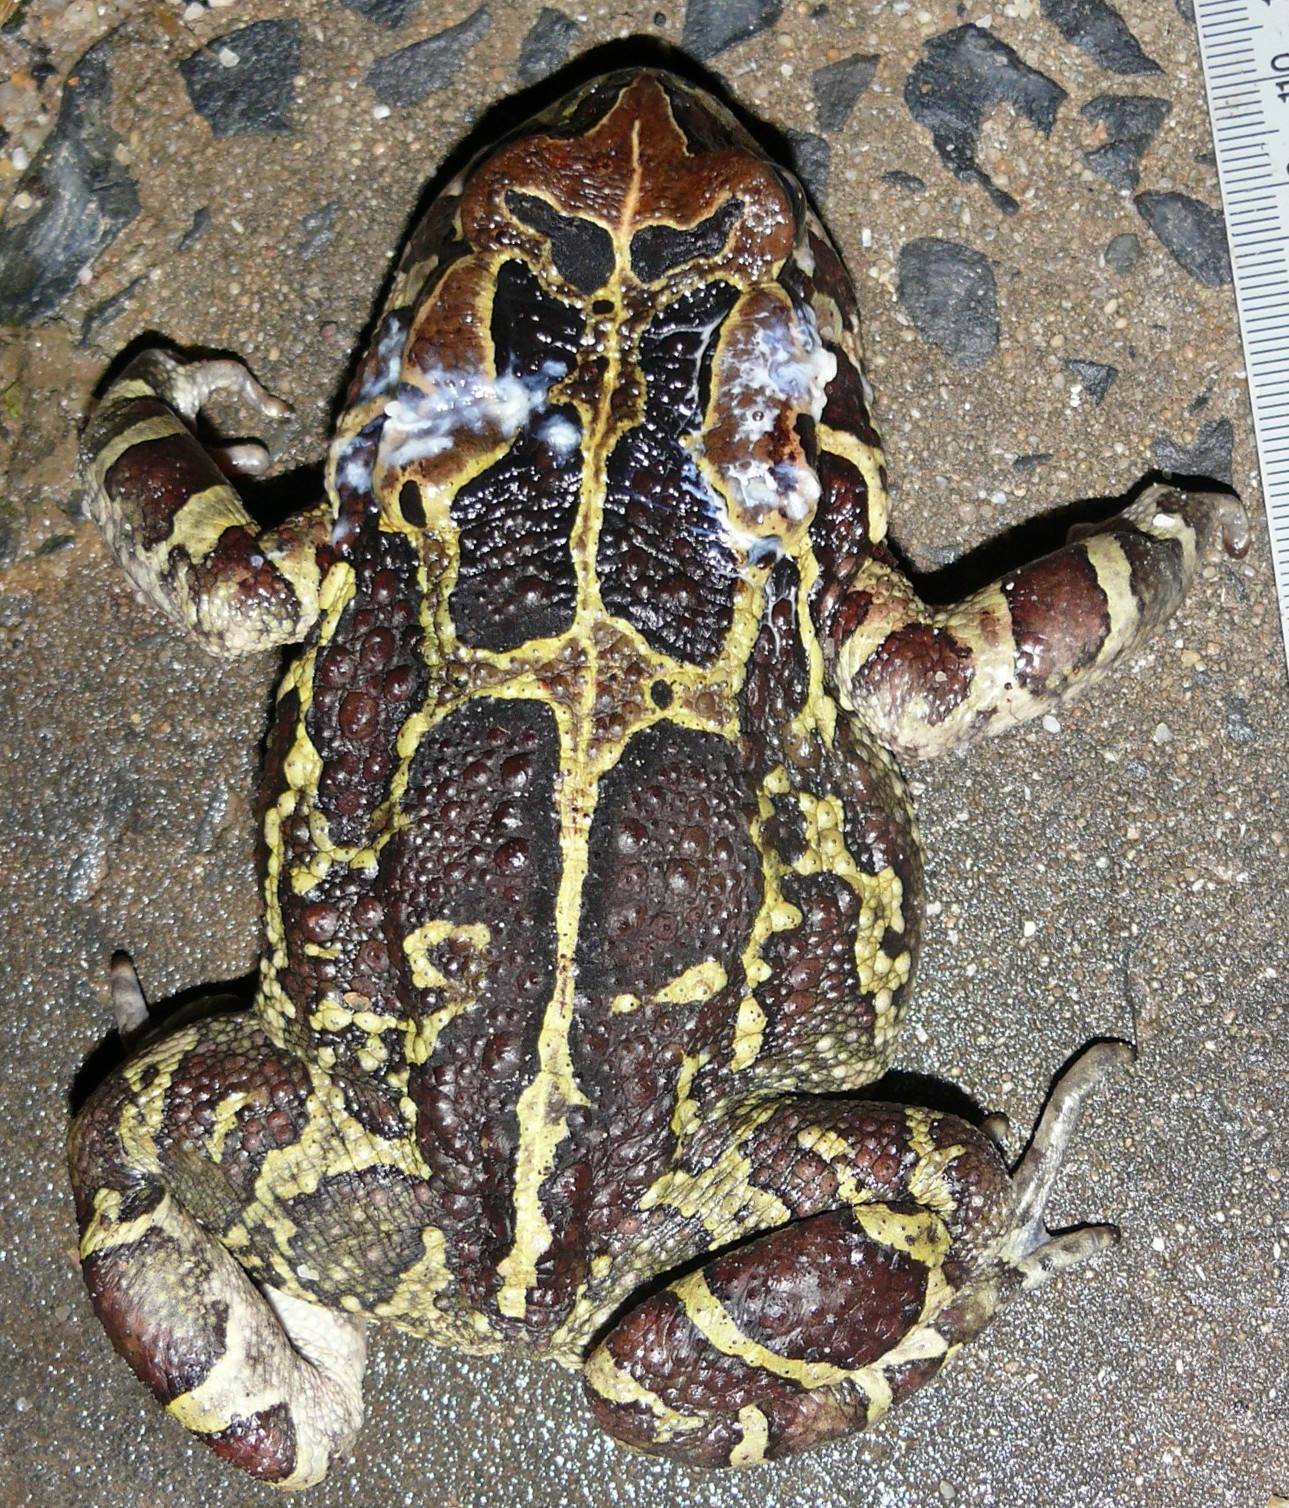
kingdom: Animalia
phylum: Chordata
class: Amphibia
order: Anura
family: Bufonidae
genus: Sclerophrys
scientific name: Sclerophrys pantherina
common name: Panther toad
